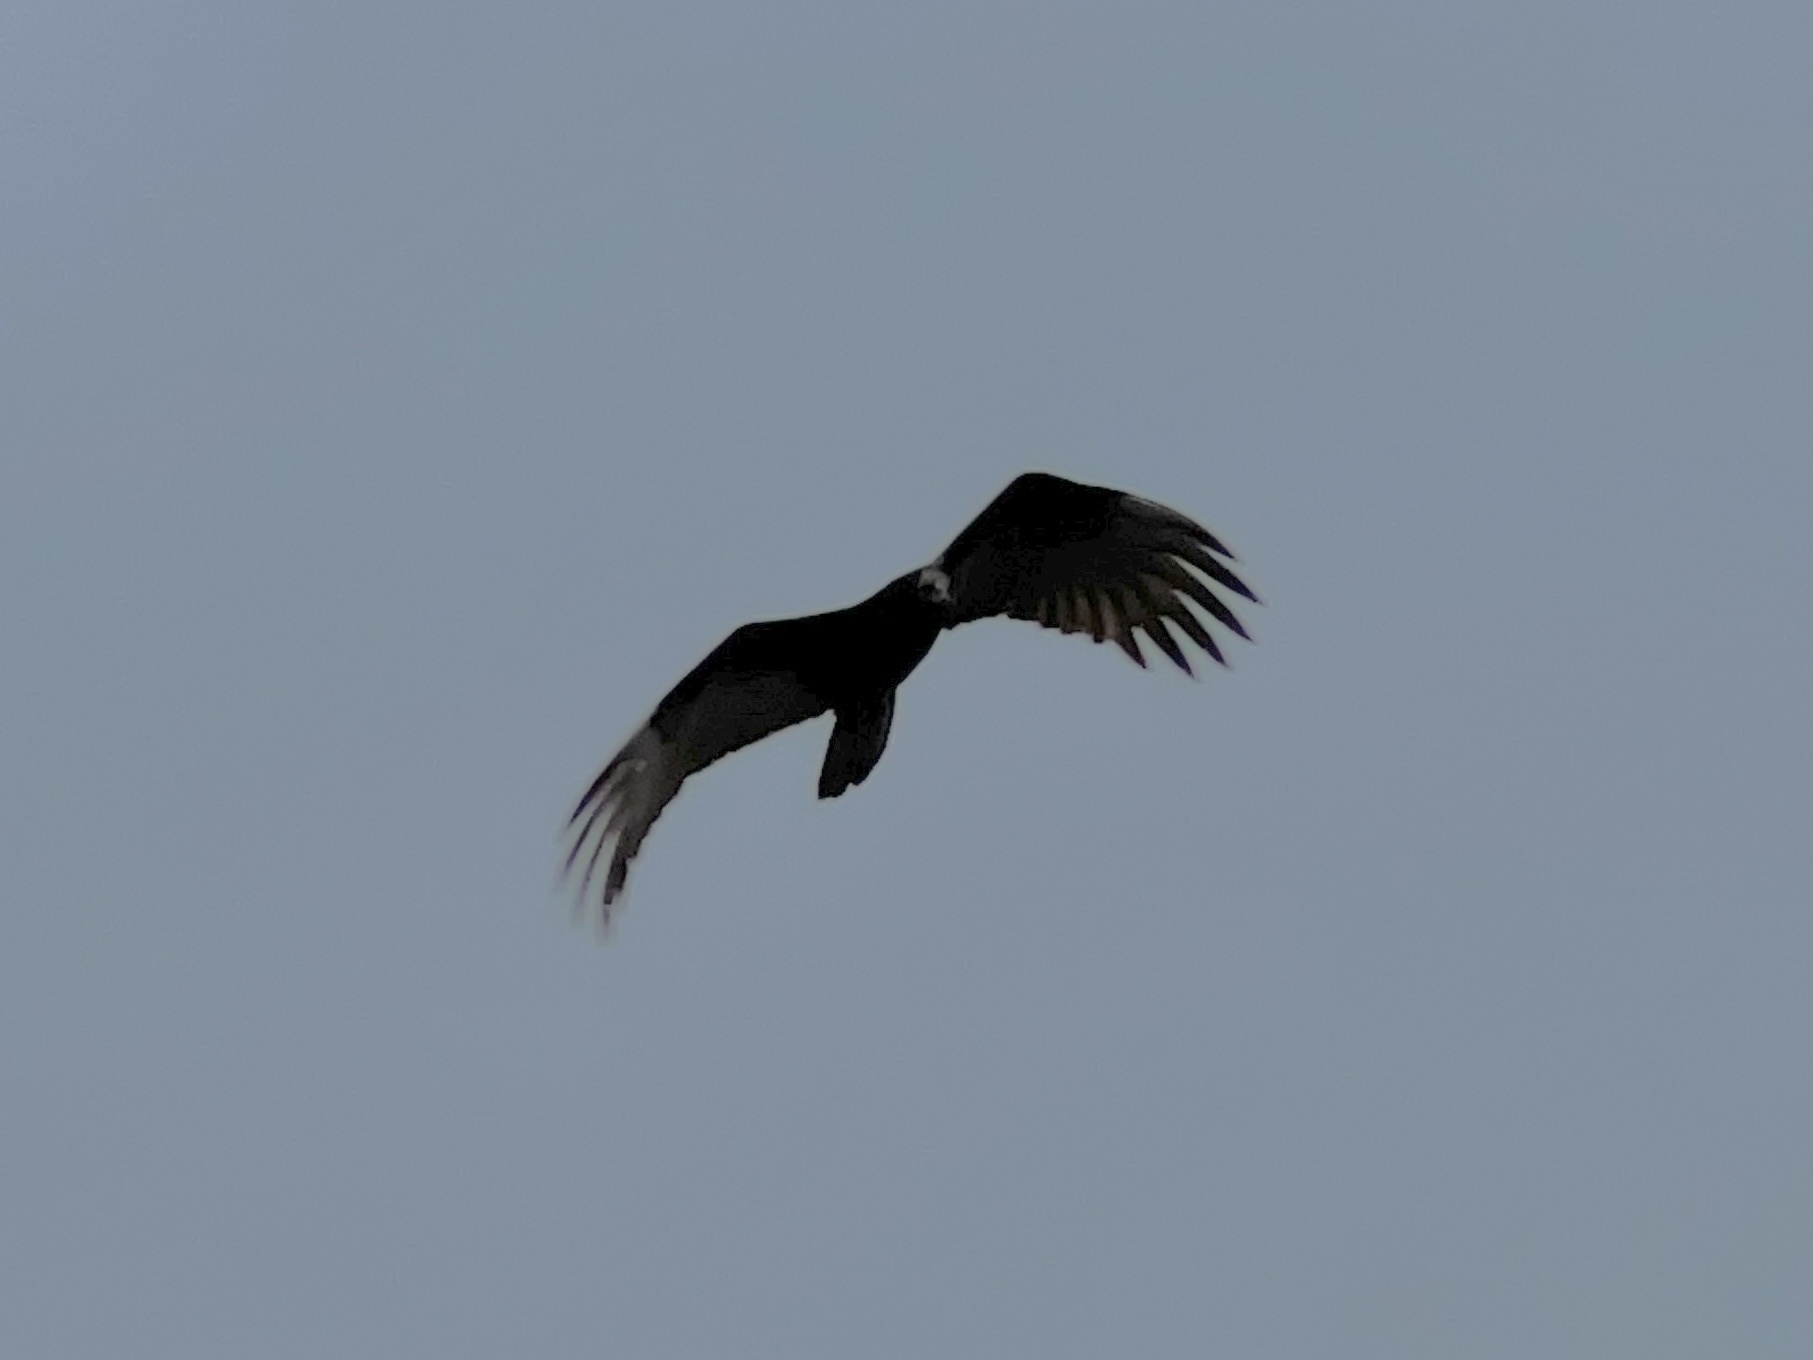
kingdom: Animalia
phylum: Chordata
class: Aves
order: Accipitriformes
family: Cathartidae
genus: Cathartes
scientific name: Cathartes aura
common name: Turkey vulture
